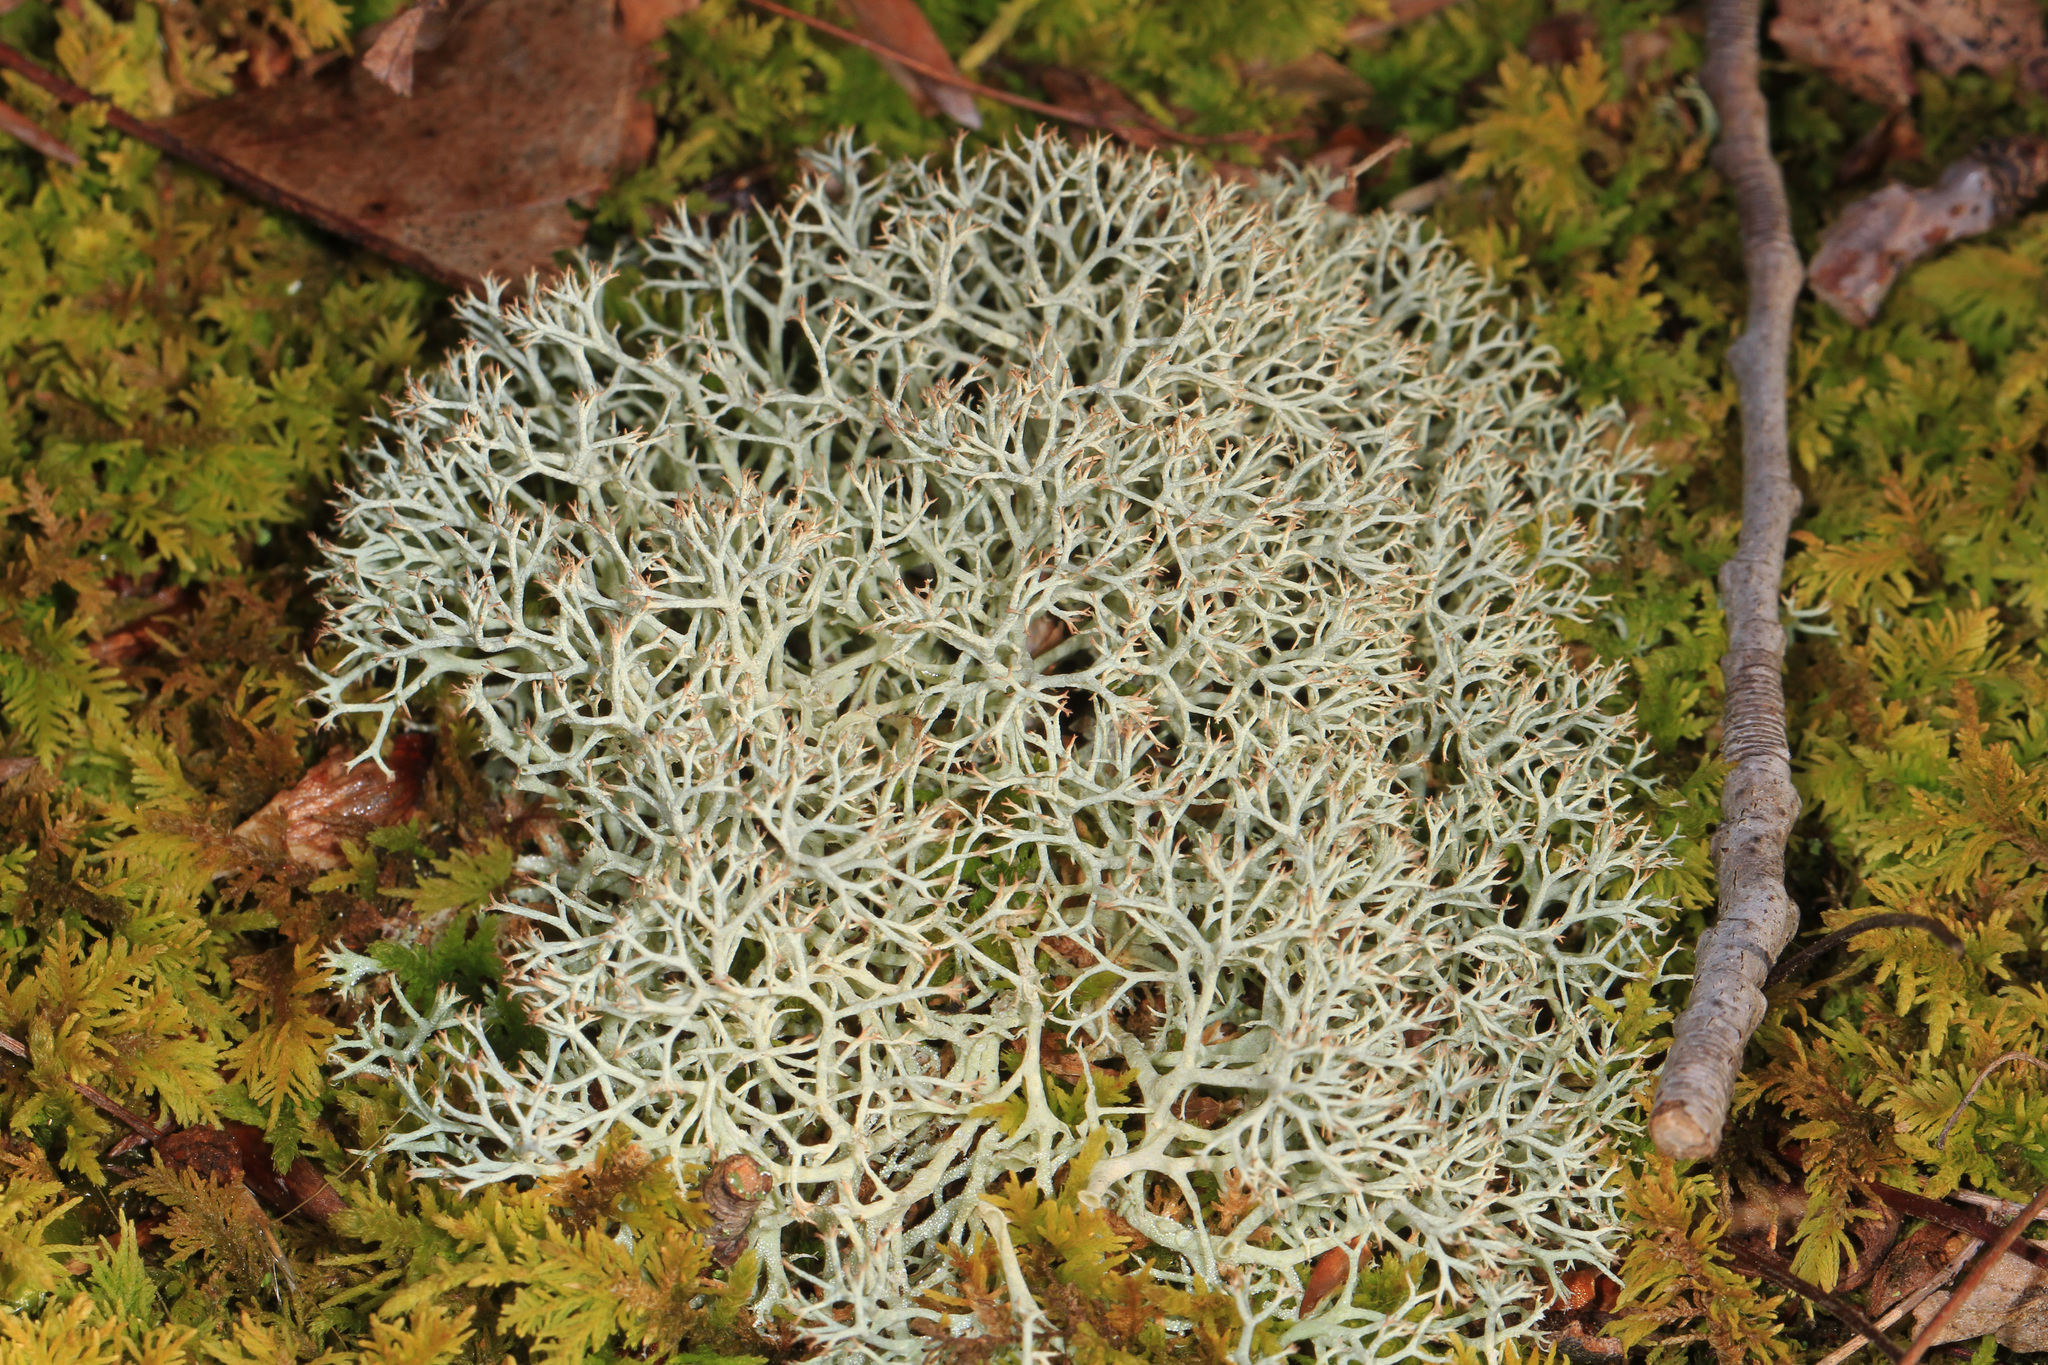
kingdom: Fungi
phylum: Ascomycota
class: Lecanoromycetes
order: Lecanorales
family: Cladoniaceae
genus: Cladonia
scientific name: Cladonia rangiferina
